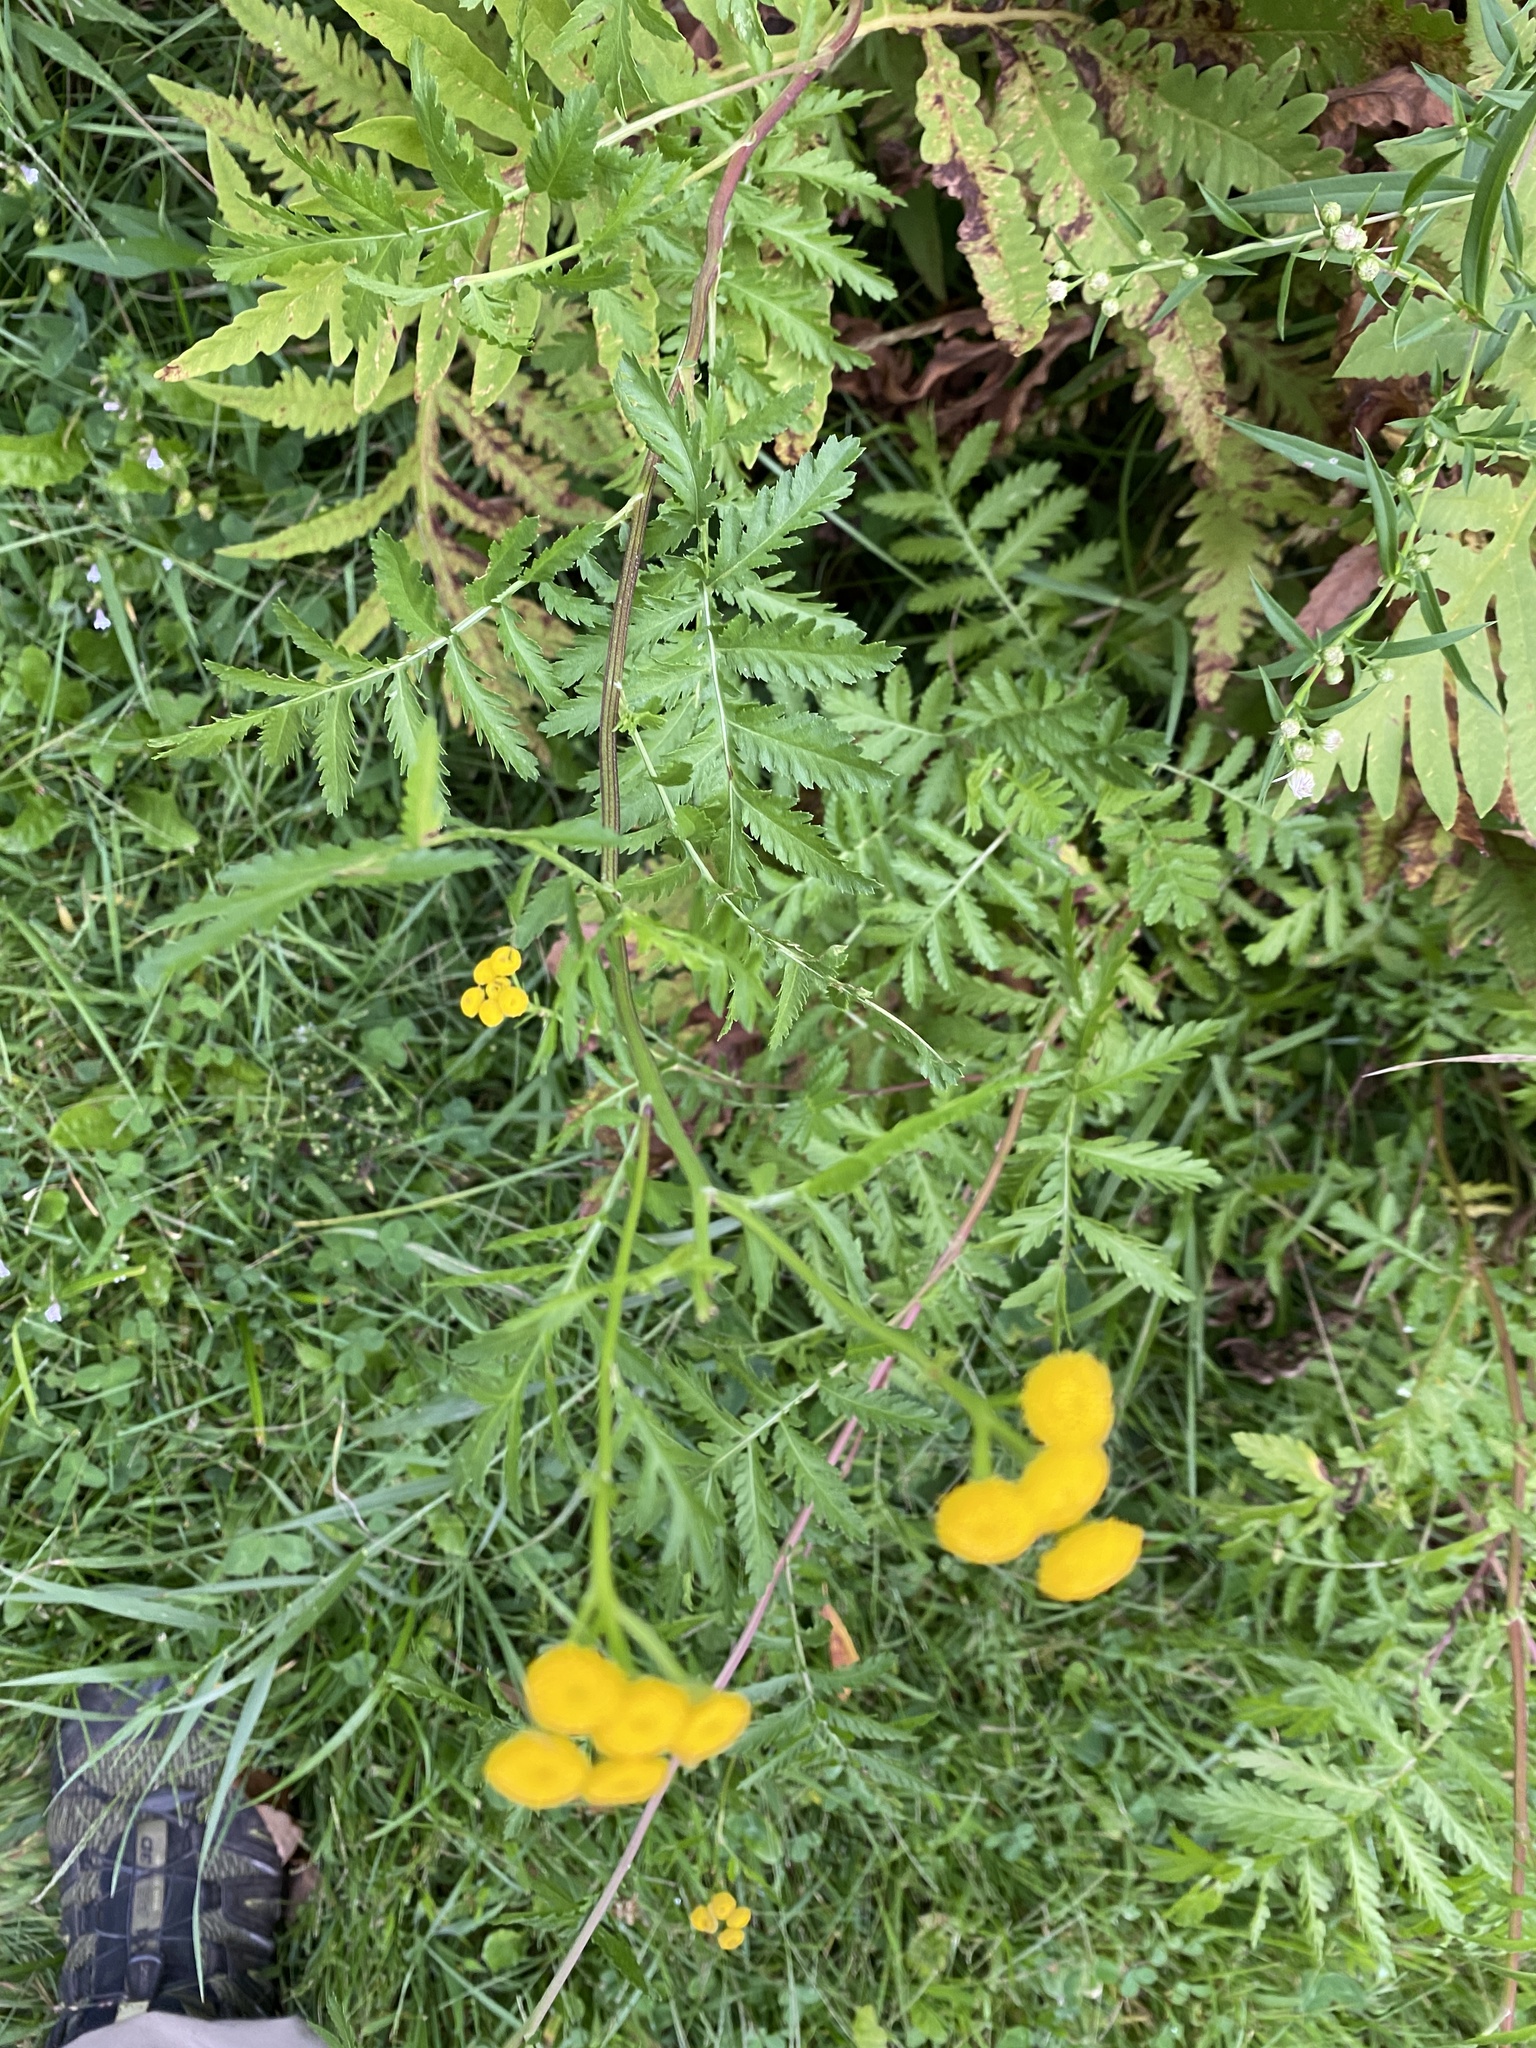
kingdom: Plantae
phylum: Tracheophyta
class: Magnoliopsida
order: Asterales
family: Asteraceae
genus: Tanacetum
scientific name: Tanacetum vulgare
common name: Common tansy
